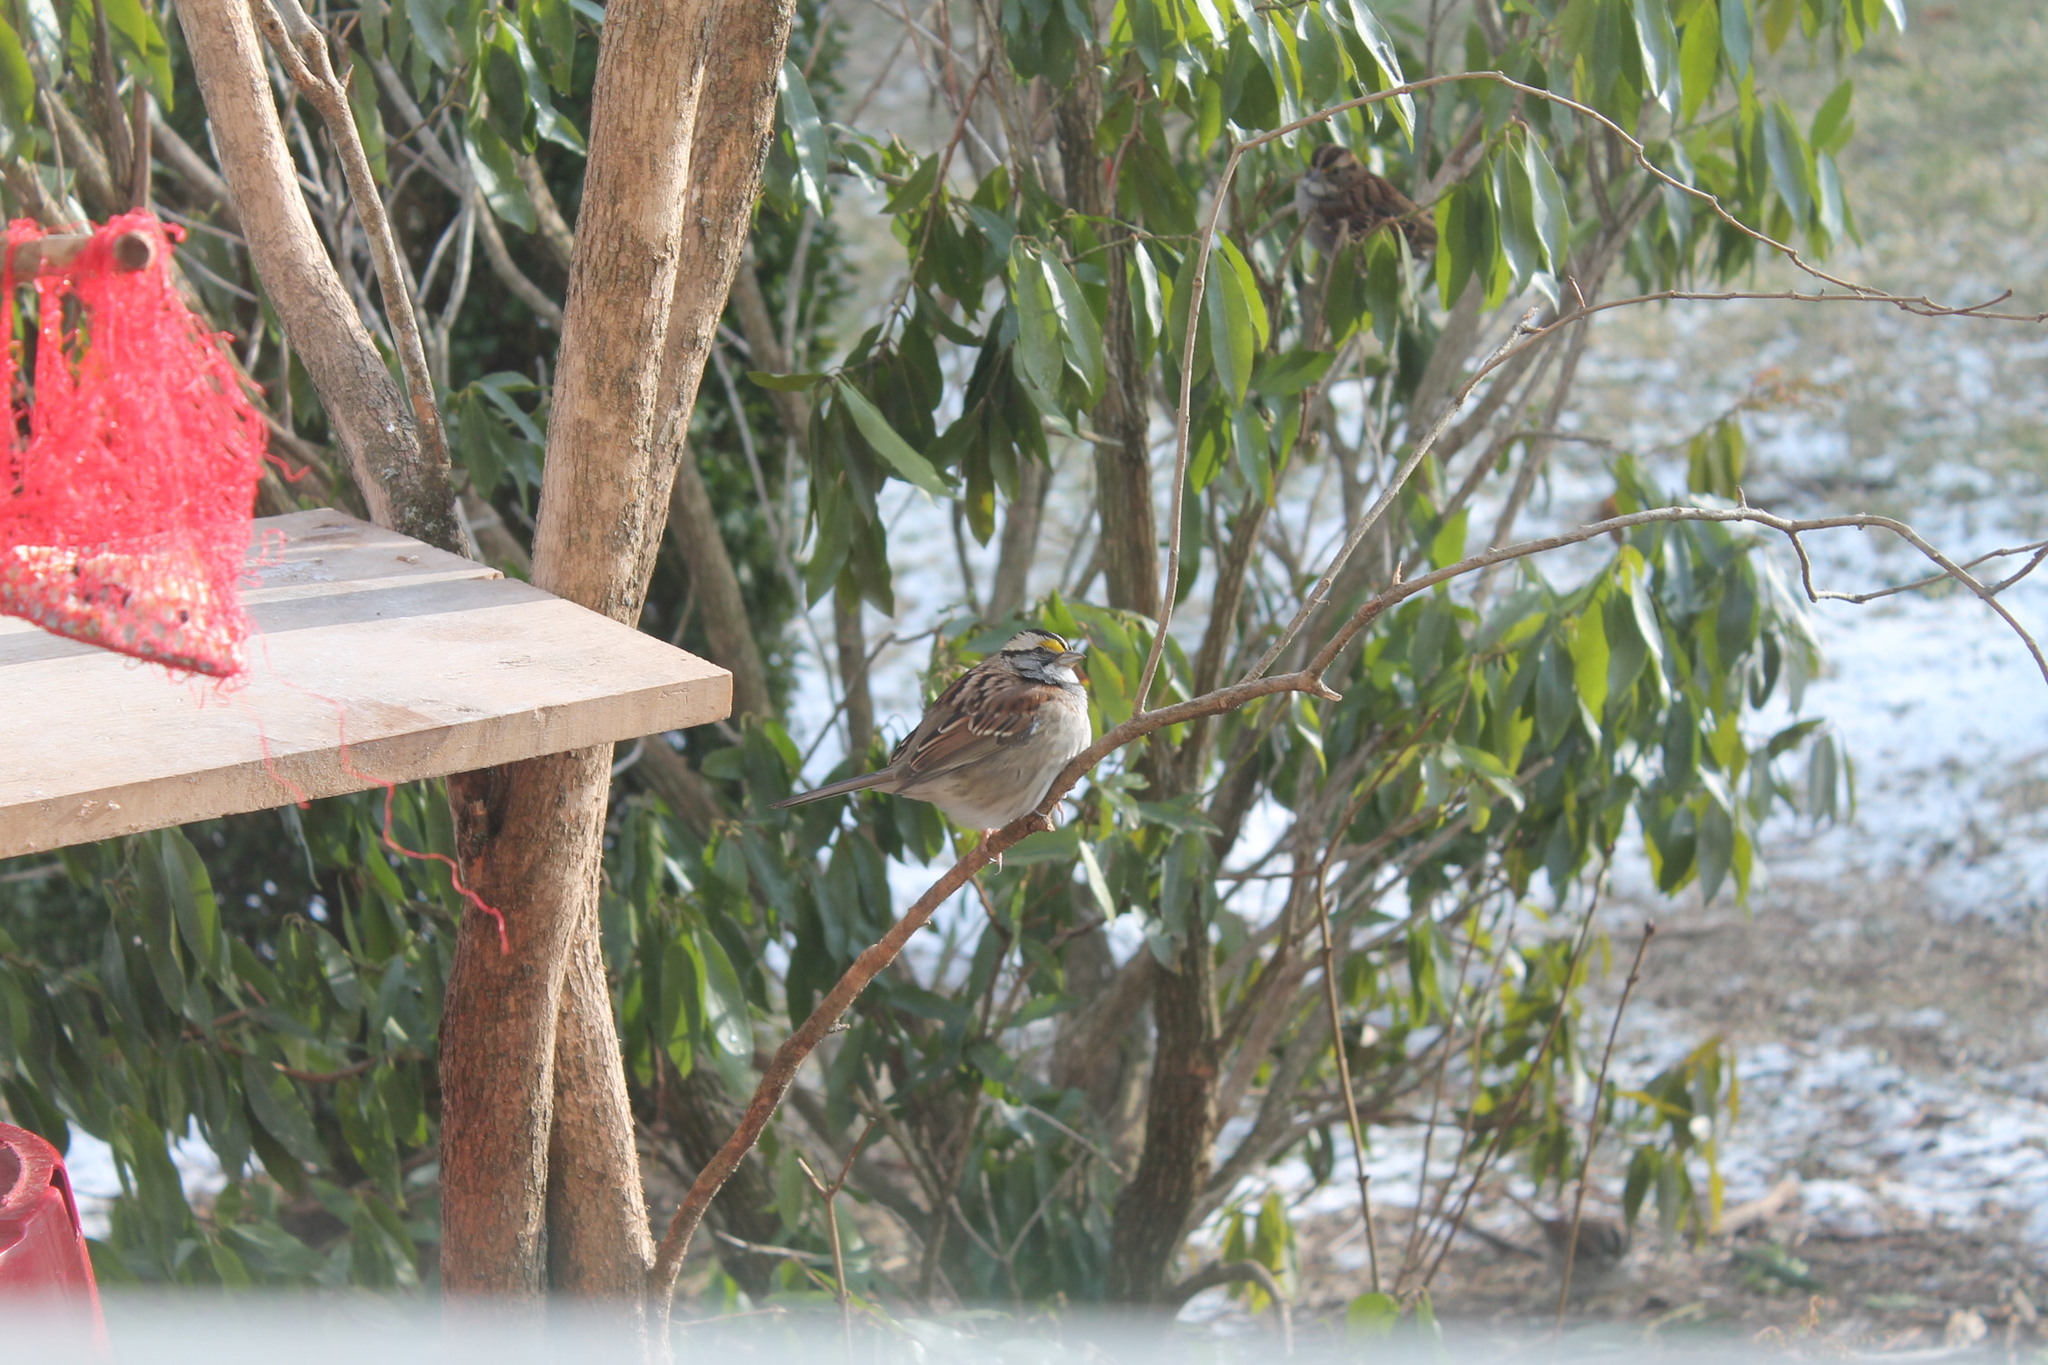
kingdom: Animalia
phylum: Chordata
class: Aves
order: Passeriformes
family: Passerellidae
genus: Zonotrichia
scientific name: Zonotrichia albicollis
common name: White-throated sparrow
